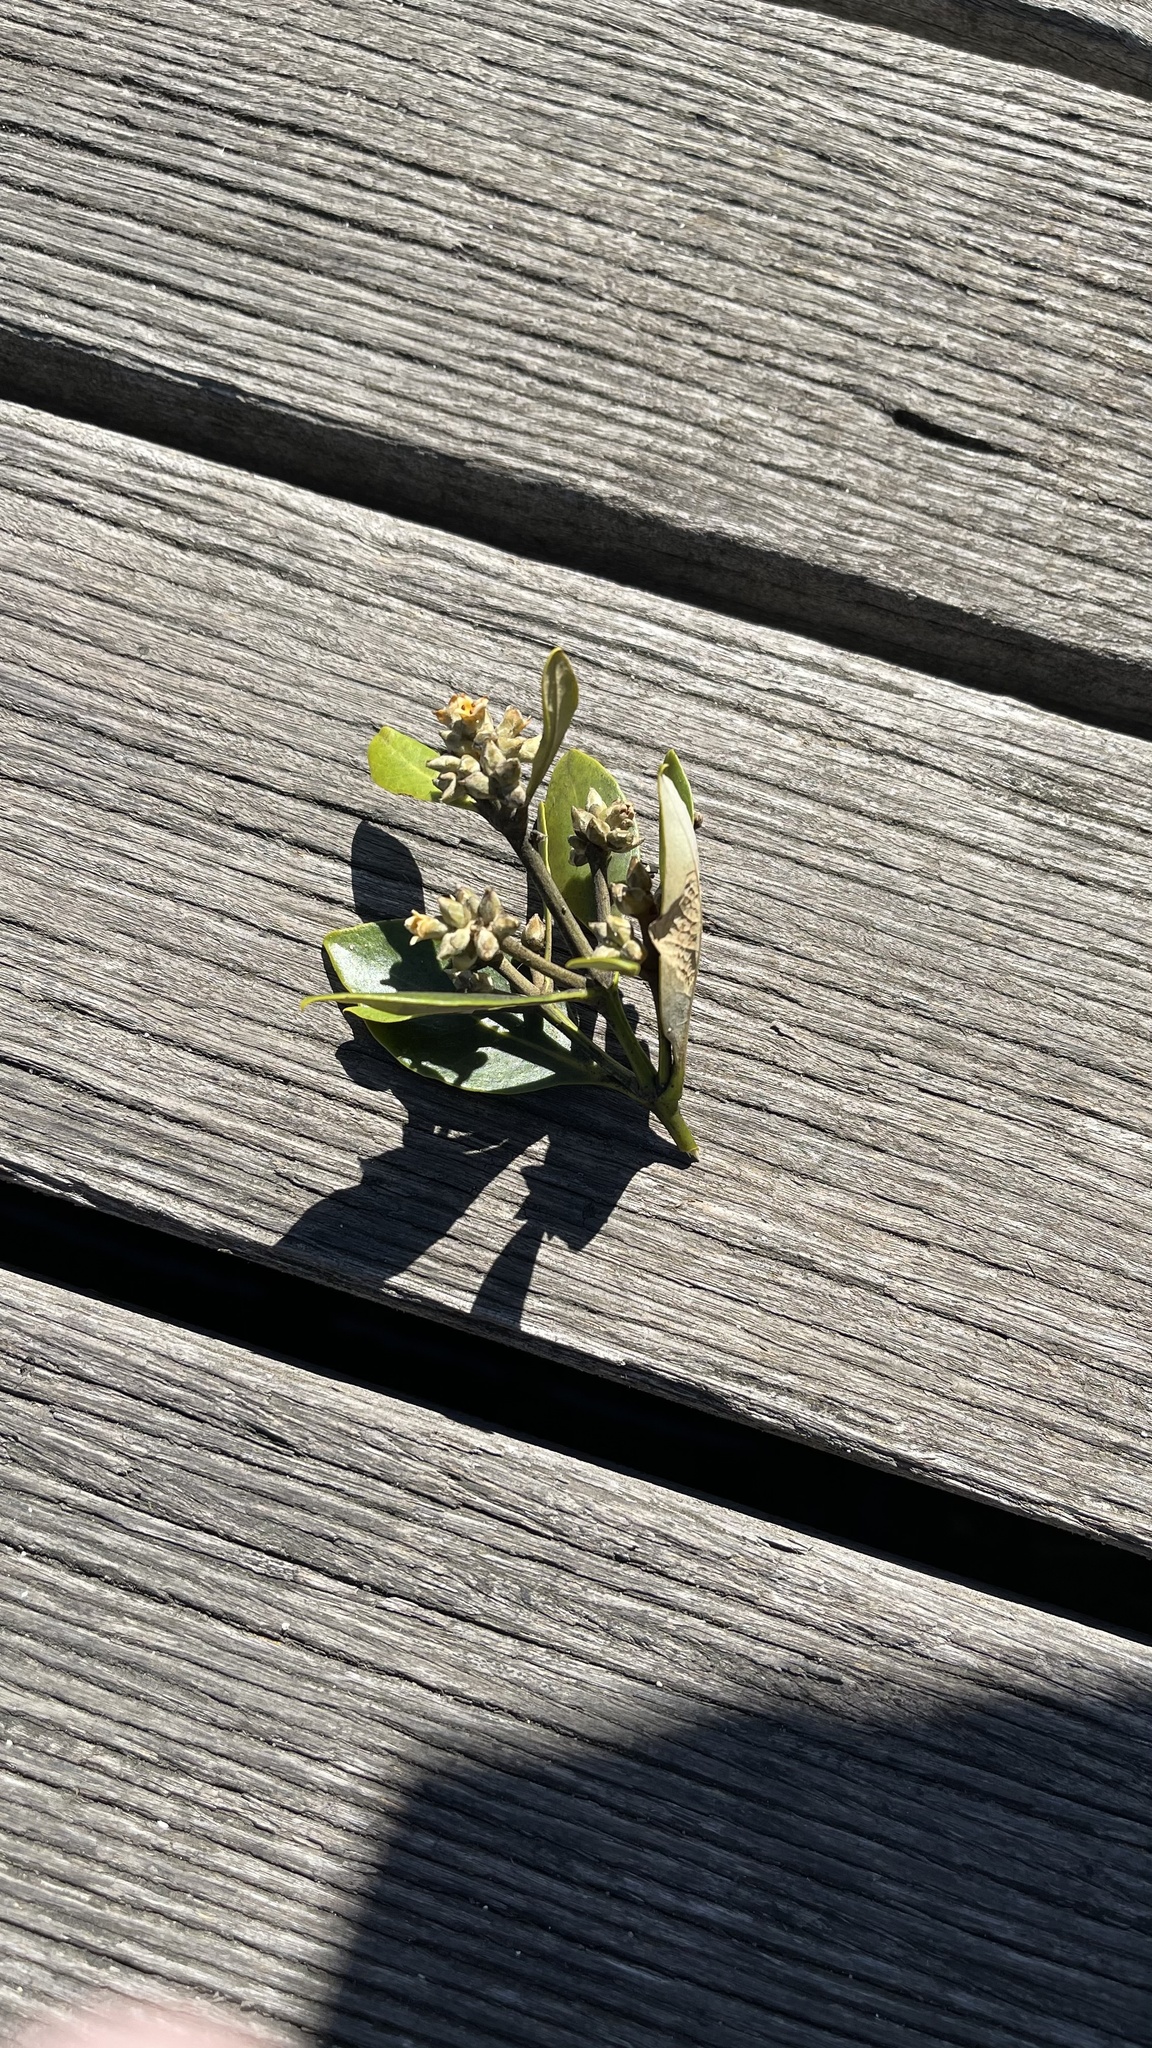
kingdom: Plantae
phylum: Tracheophyta
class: Magnoliopsida
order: Lamiales
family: Acanthaceae
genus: Avicennia
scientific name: Avicennia marina
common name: Gray mangrove
